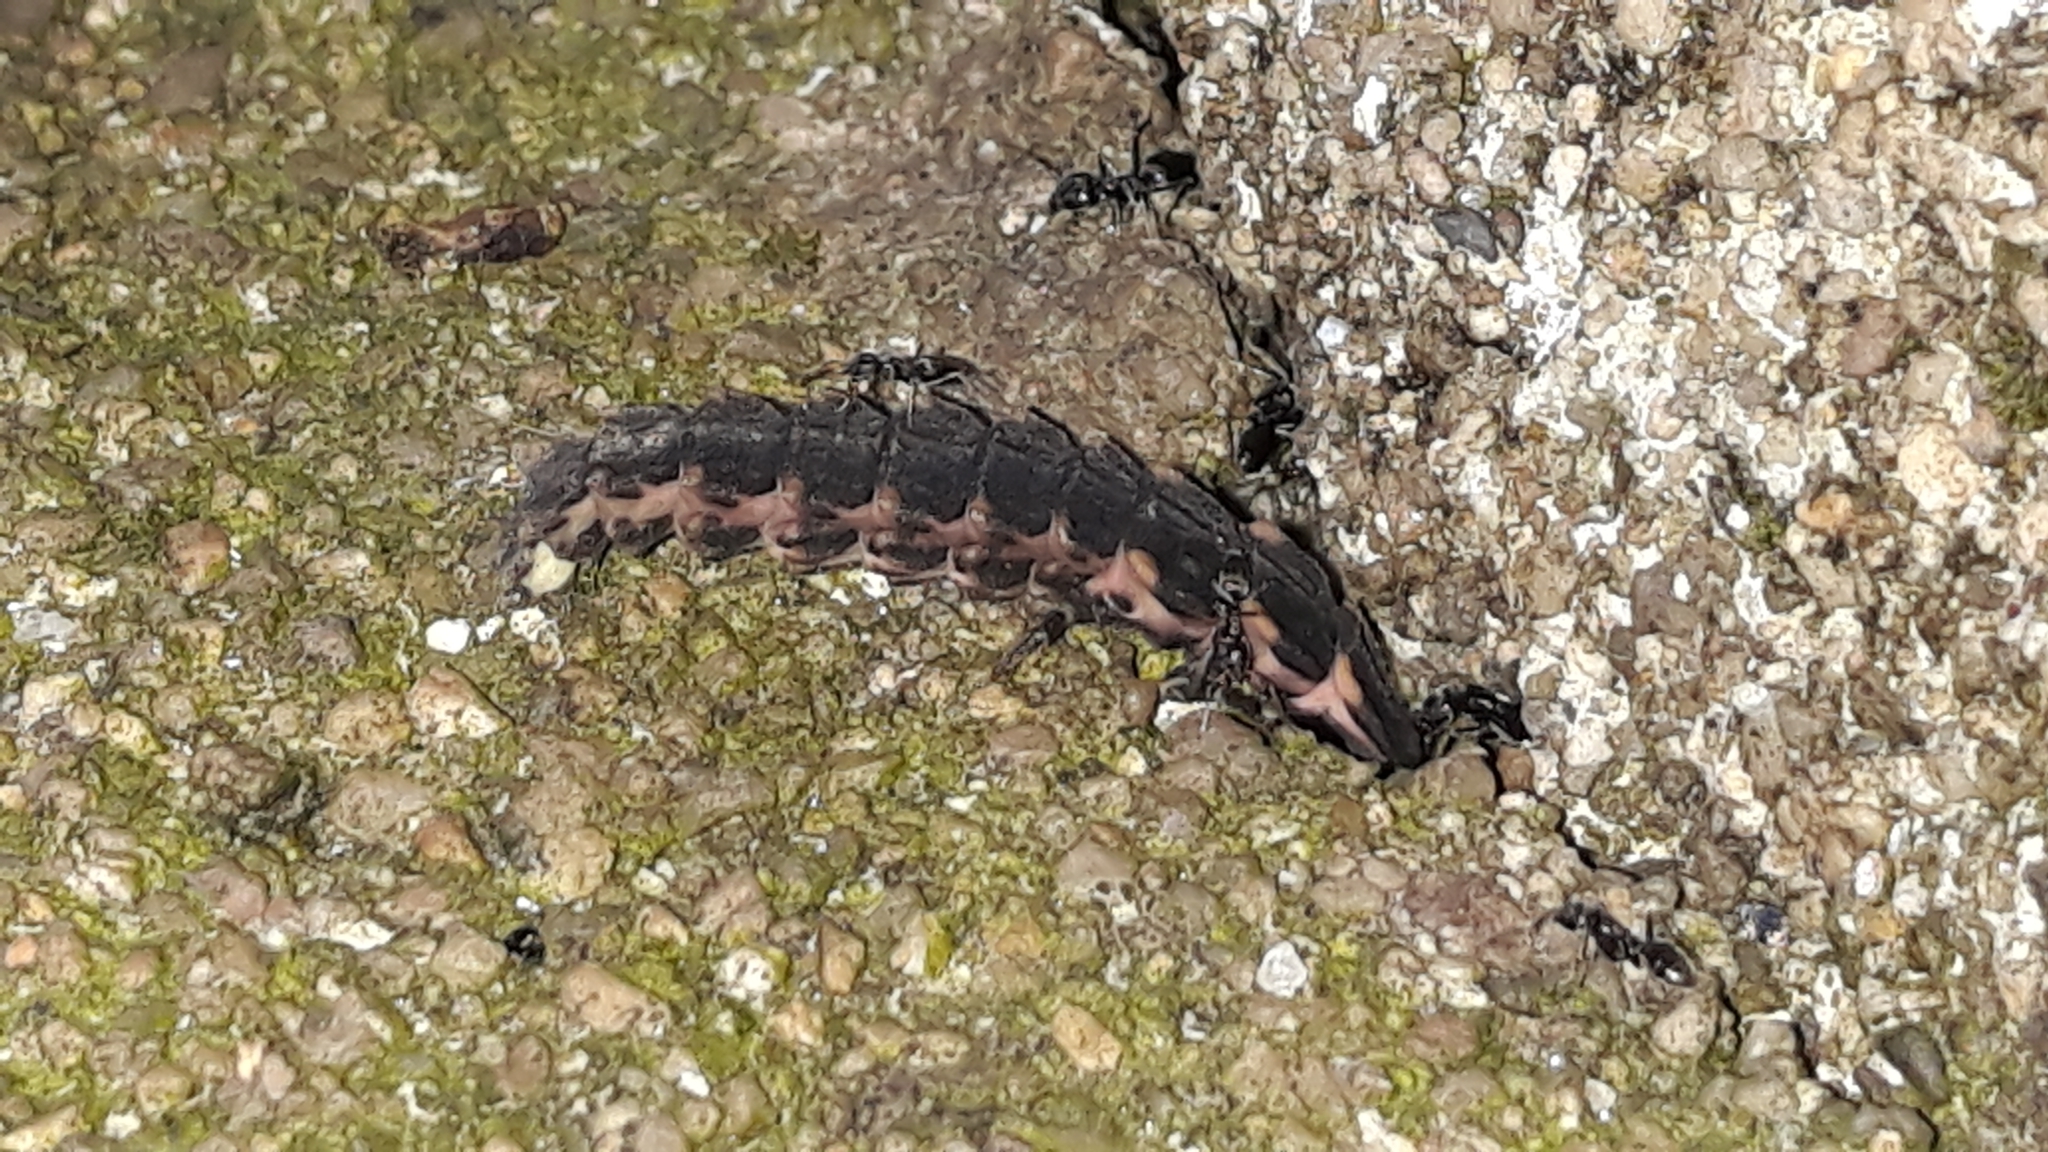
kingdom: Animalia
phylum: Arthropoda
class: Insecta
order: Coleoptera
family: Lampyridae
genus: Lampyris
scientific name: Lampyris
